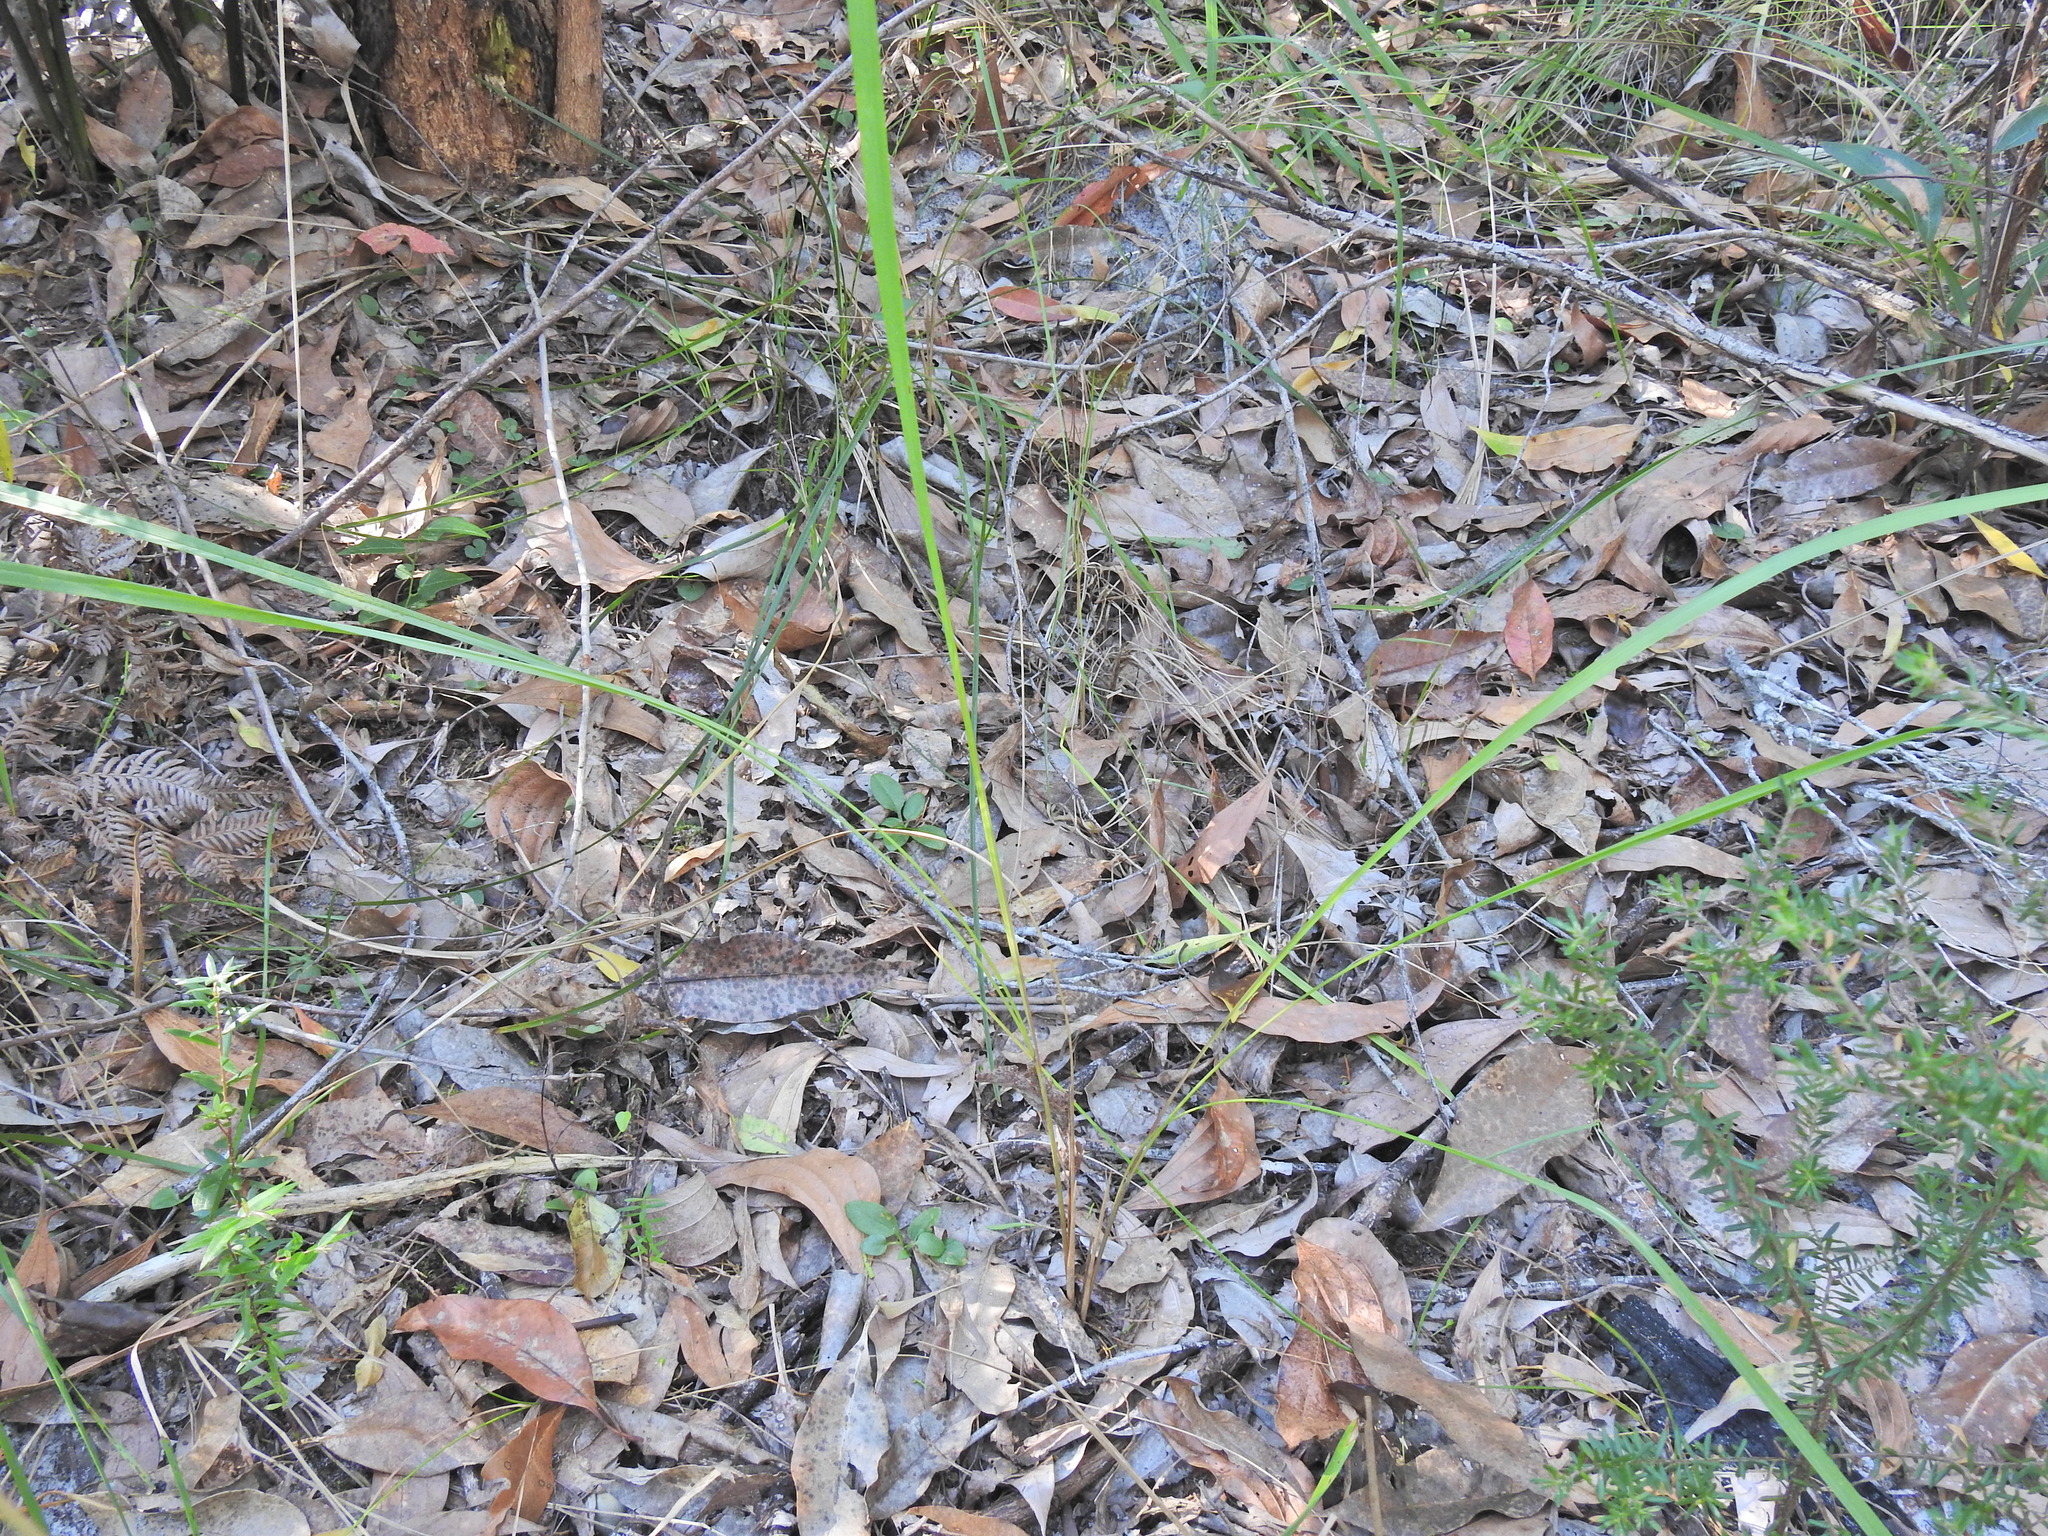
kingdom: Plantae
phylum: Tracheophyta
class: Liliopsida
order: Poales
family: Poaceae
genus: Imperata
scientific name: Imperata cylindrica
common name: Cogongrass
